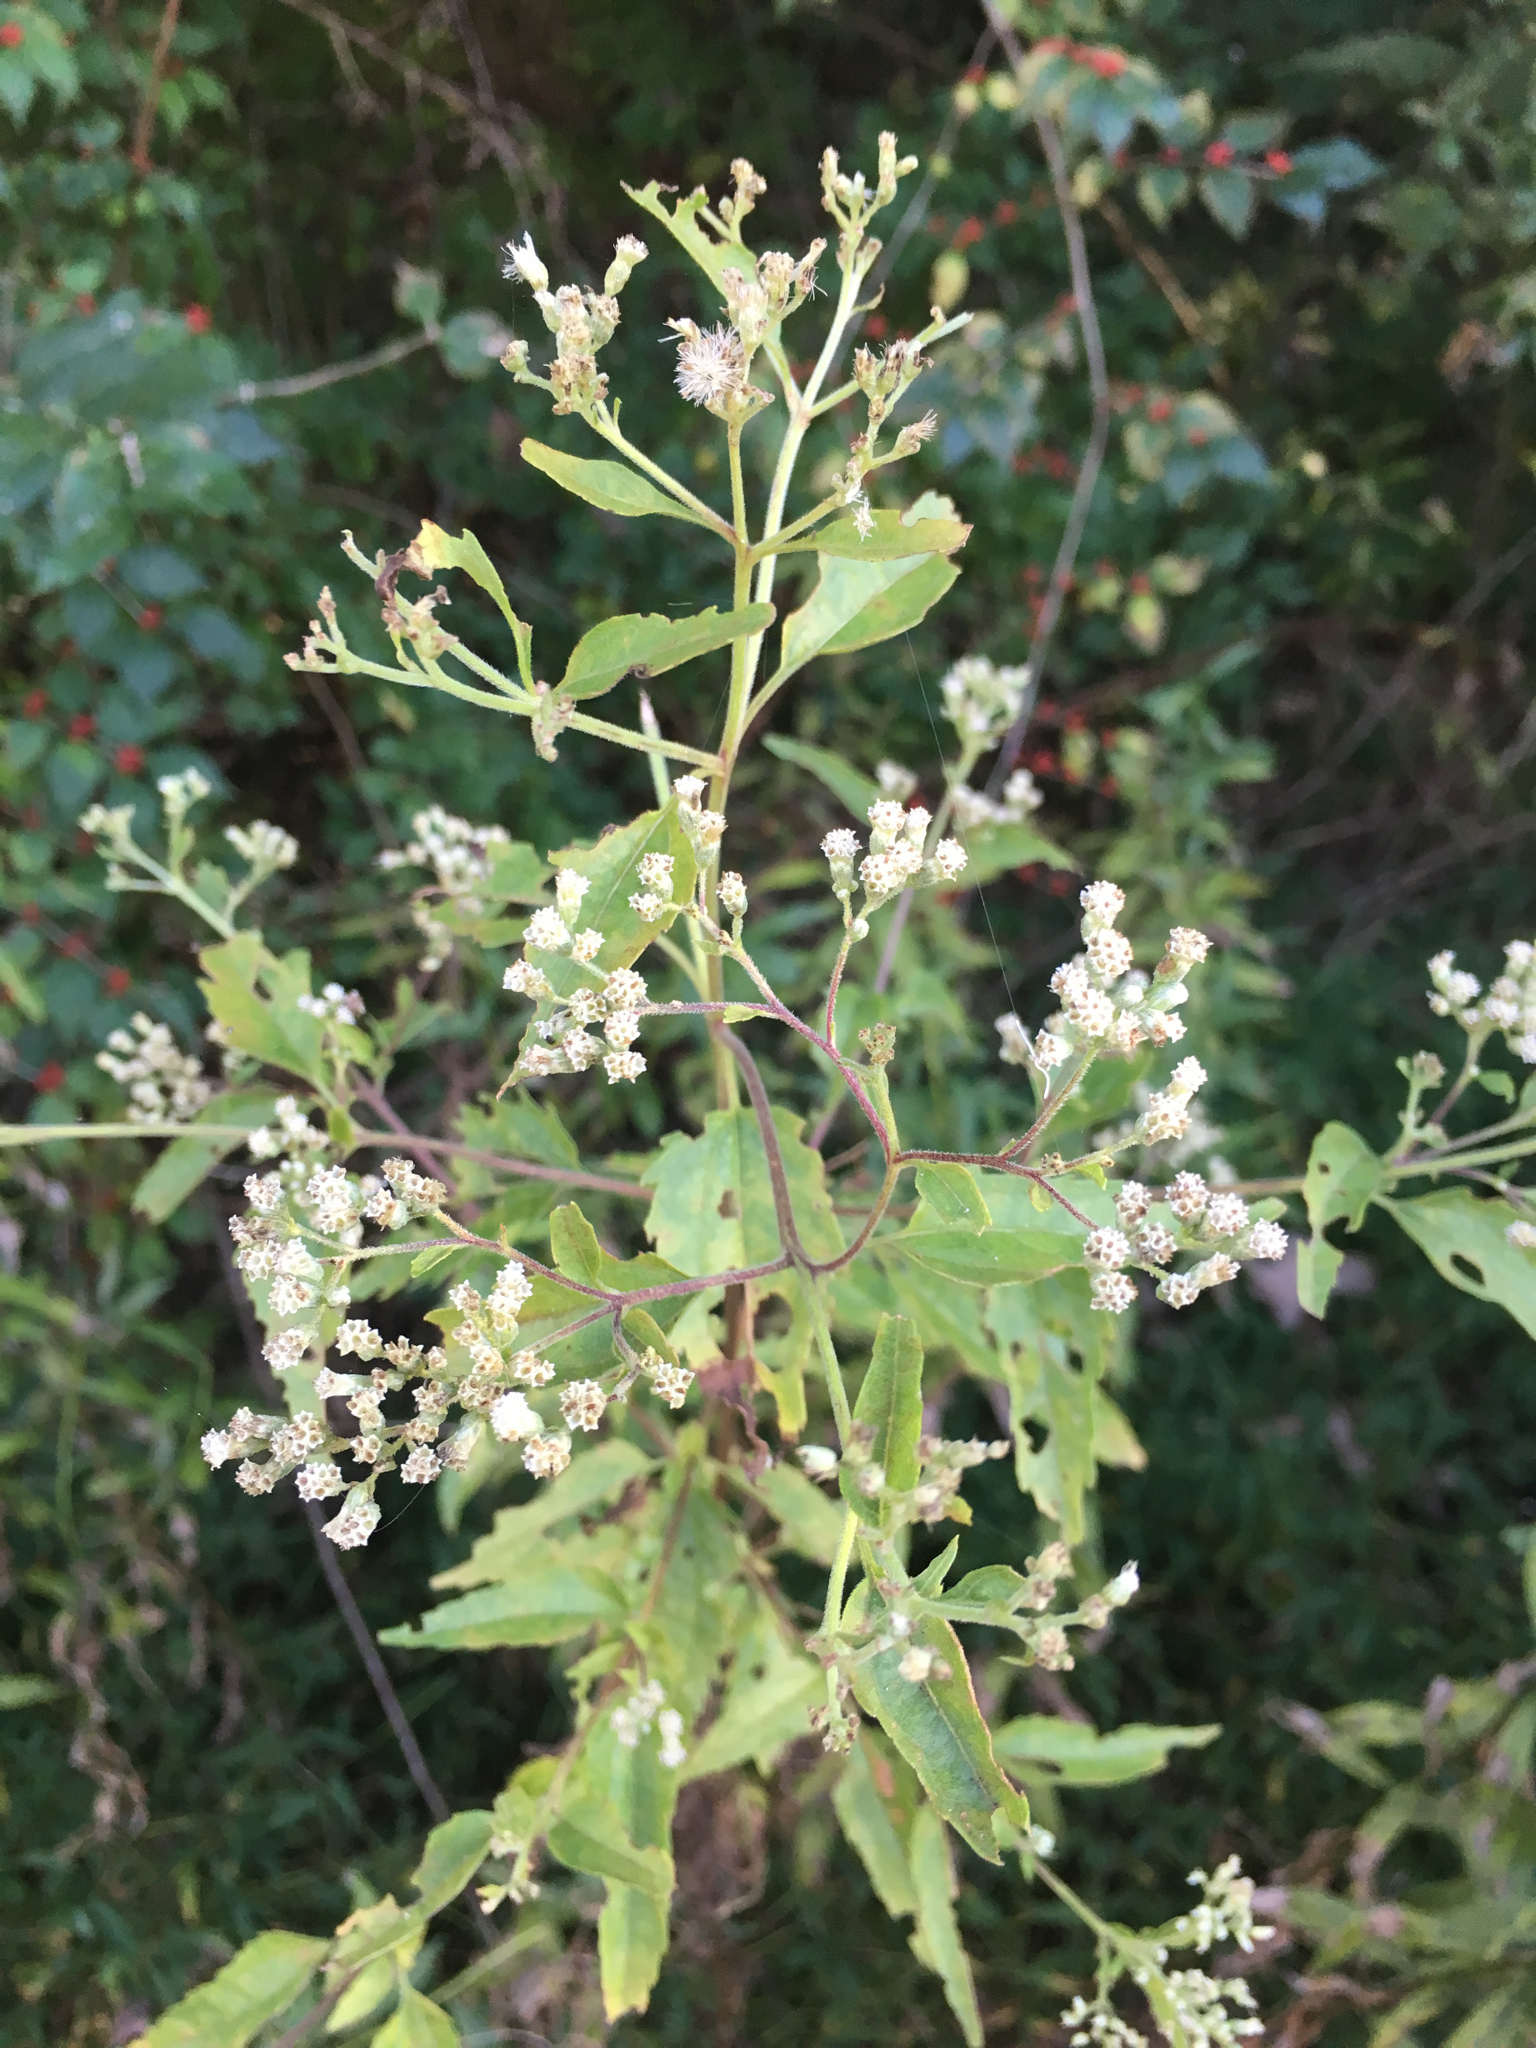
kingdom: Plantae
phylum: Tracheophyta
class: Magnoliopsida
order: Asterales
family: Asteraceae
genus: Eupatorium
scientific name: Eupatorium serotinum
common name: Late boneset
